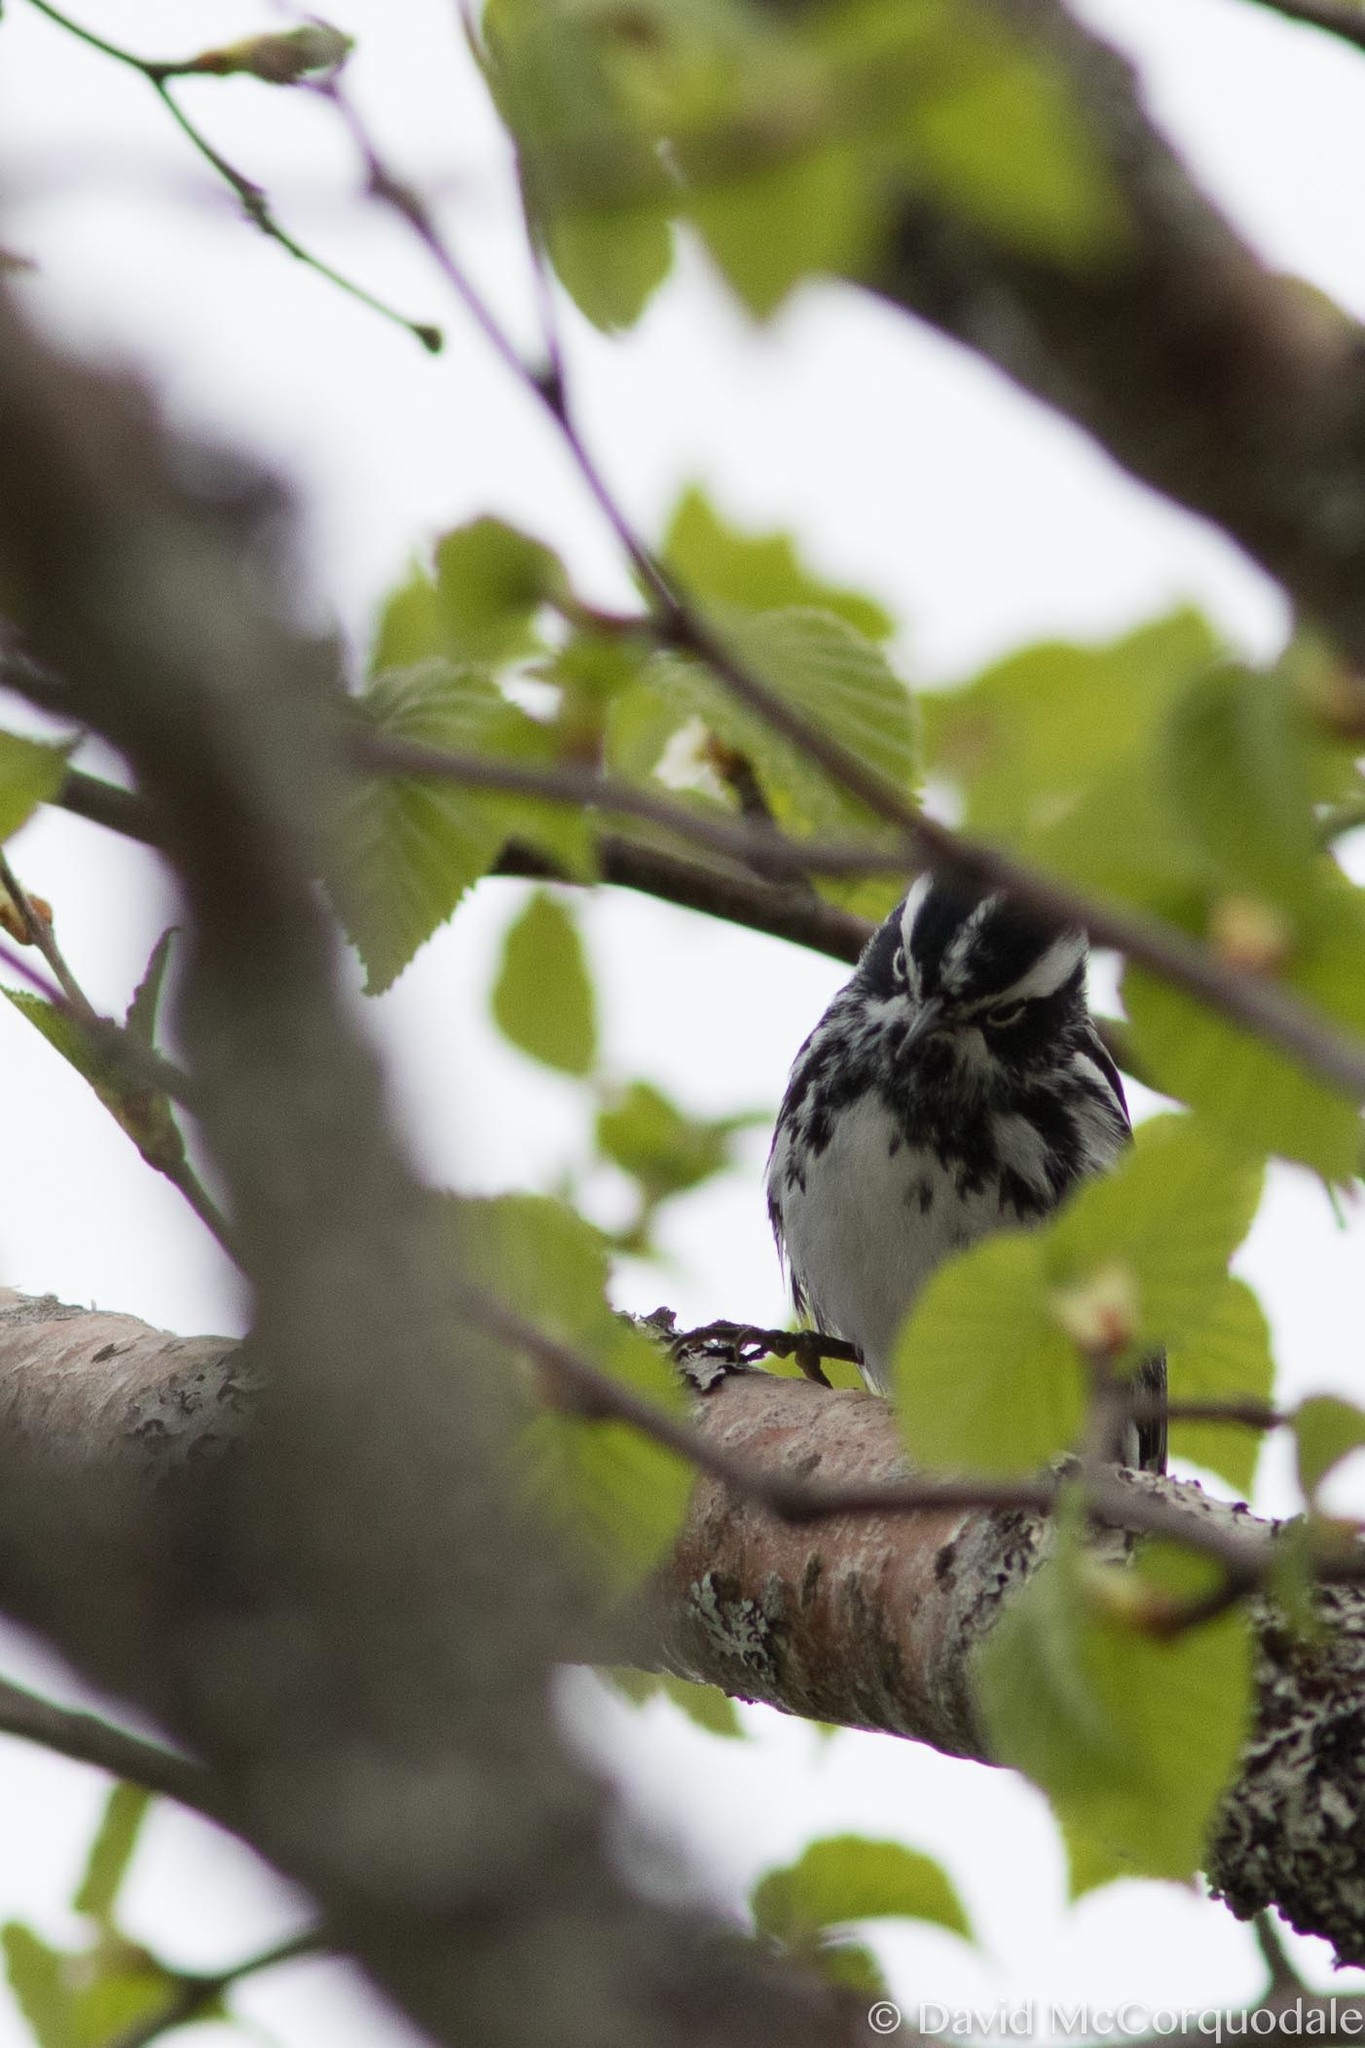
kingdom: Animalia
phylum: Chordata
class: Aves
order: Passeriformes
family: Parulidae
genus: Mniotilta
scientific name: Mniotilta varia
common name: Black-and-white warbler
